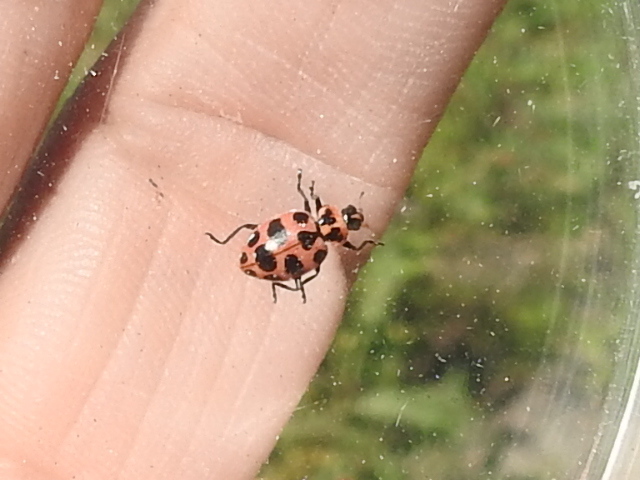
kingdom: Animalia
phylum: Arthropoda
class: Insecta
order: Coleoptera
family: Coccinellidae
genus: Coleomegilla
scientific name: Coleomegilla maculata
